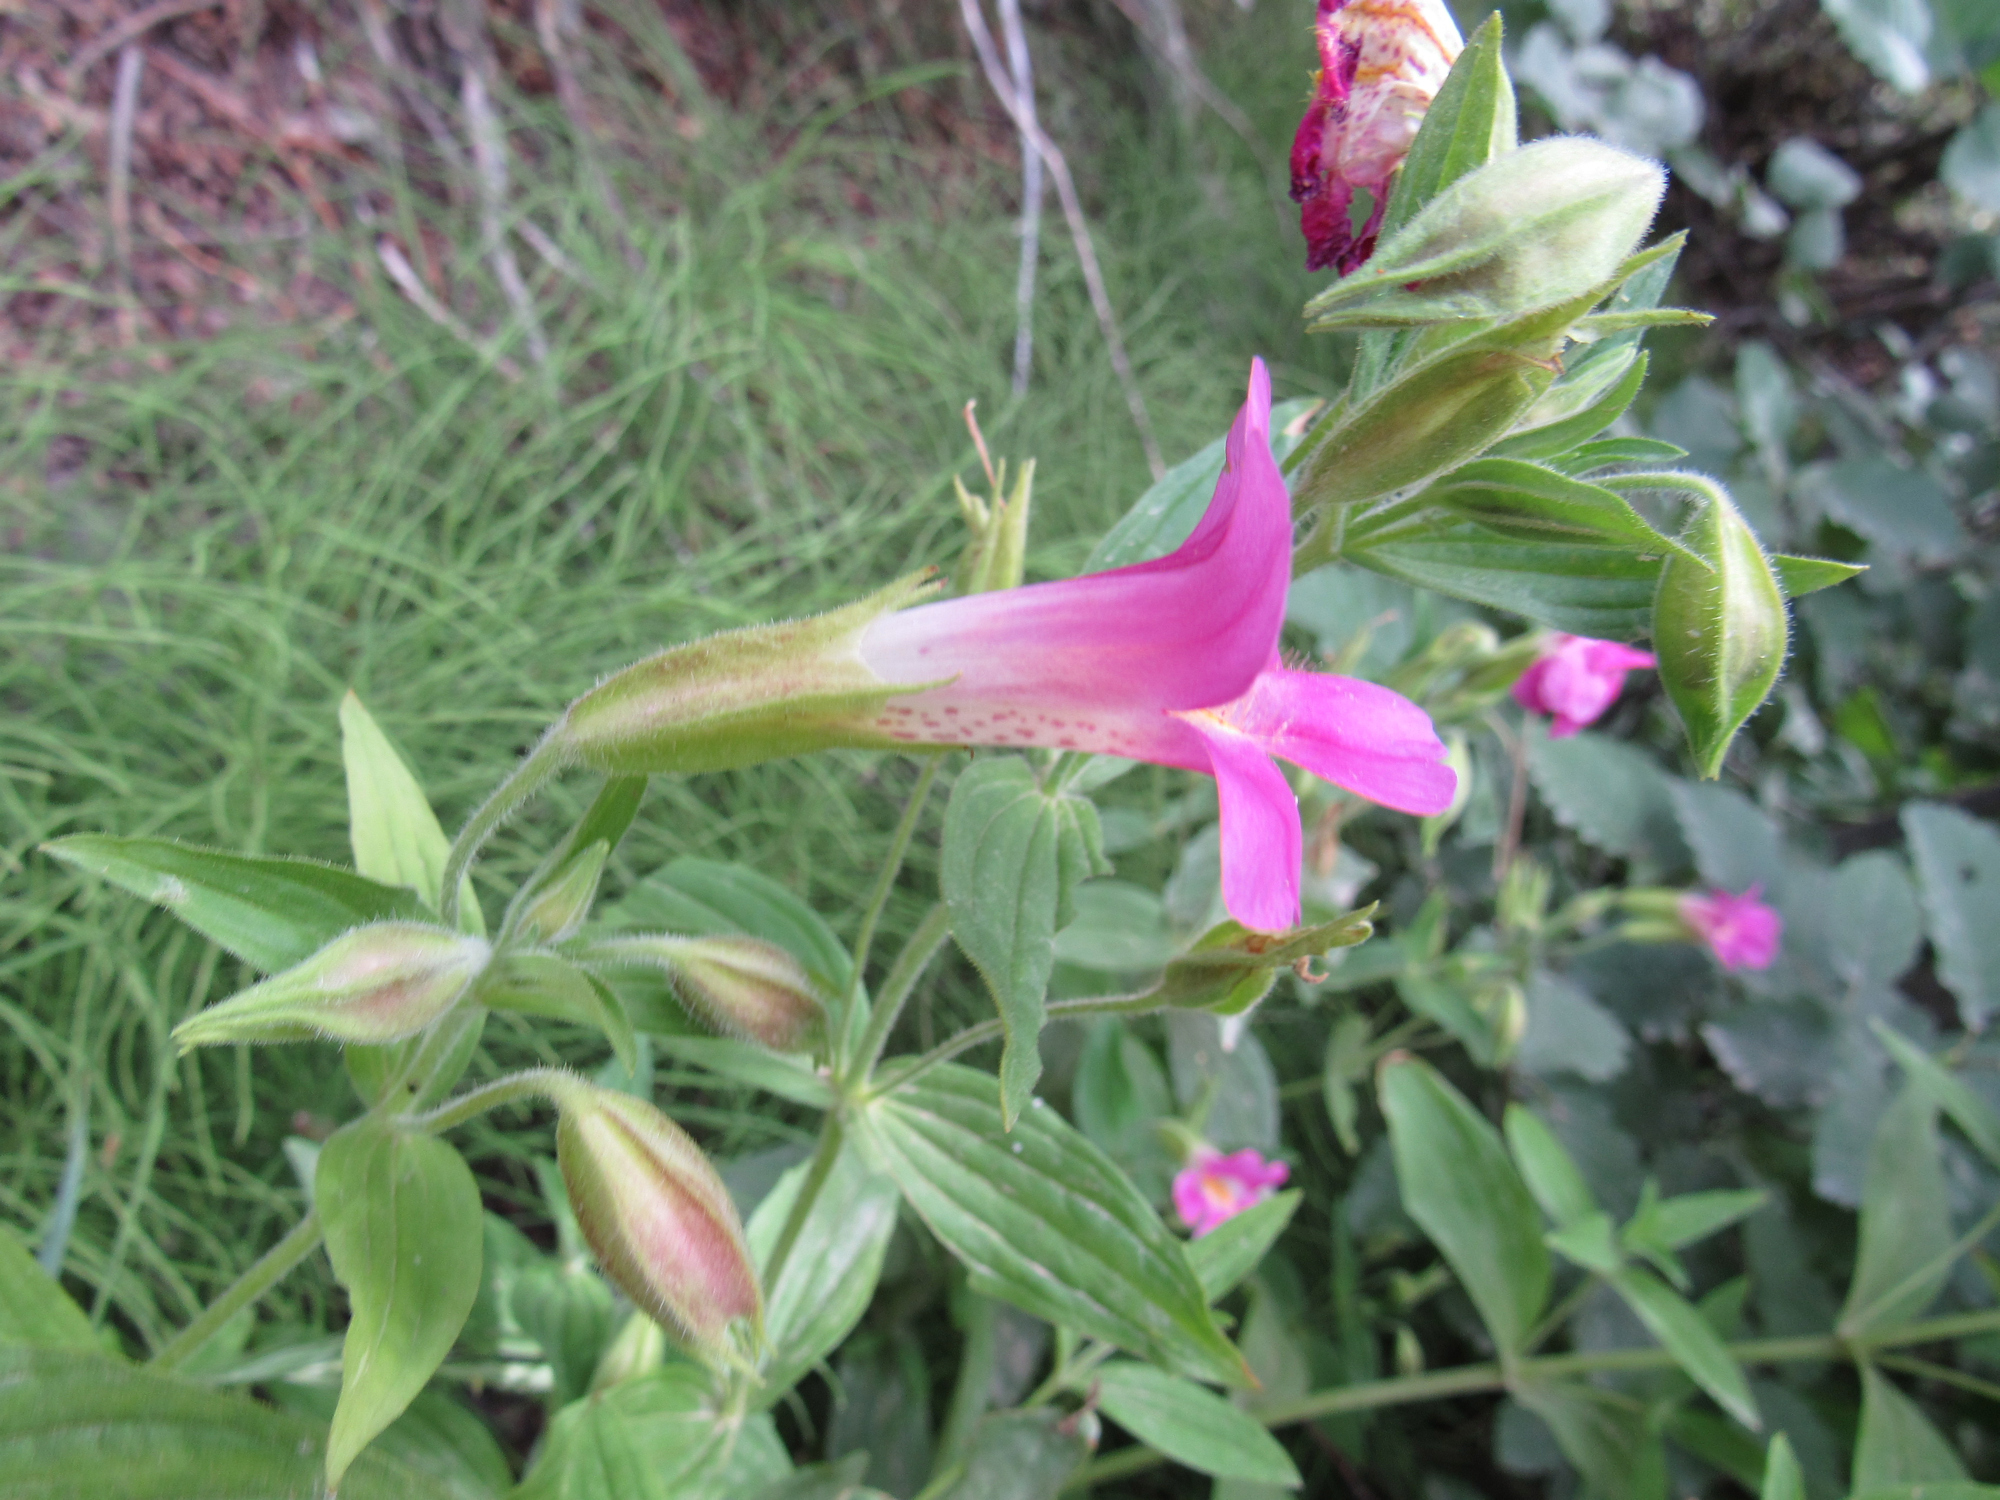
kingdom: Plantae
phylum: Tracheophyta
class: Magnoliopsida
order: Lamiales
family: Phrymaceae
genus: Erythranthe
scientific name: Erythranthe lewisii
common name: Lewis's monkey-flower
